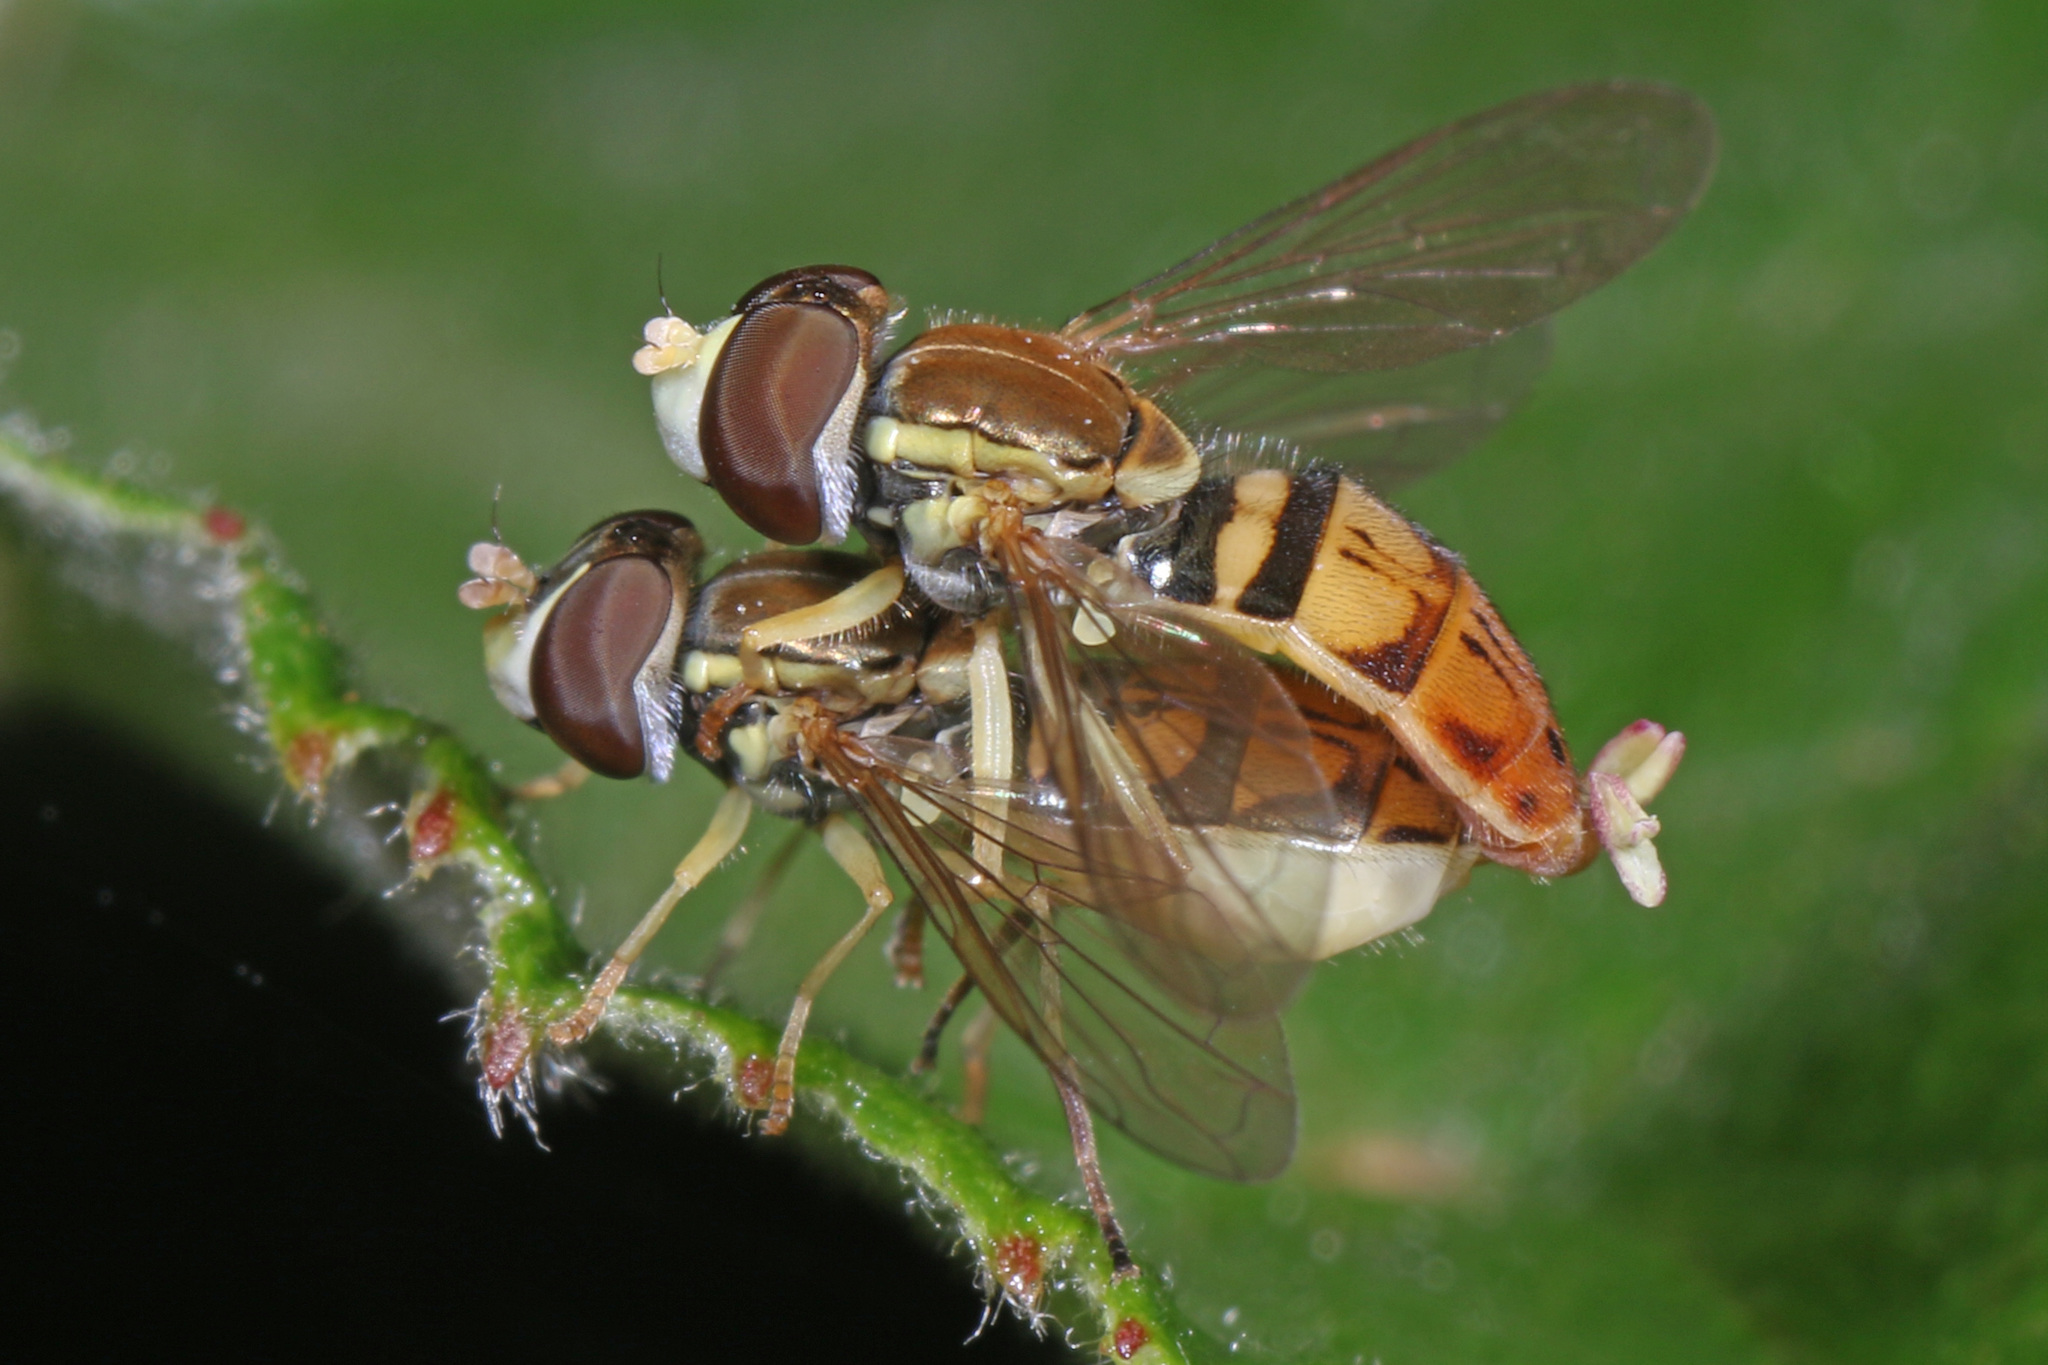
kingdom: Animalia
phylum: Arthropoda
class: Insecta
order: Diptera
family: Syrphidae
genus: Toxomerus
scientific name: Toxomerus marginatus
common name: Syrphid fly
